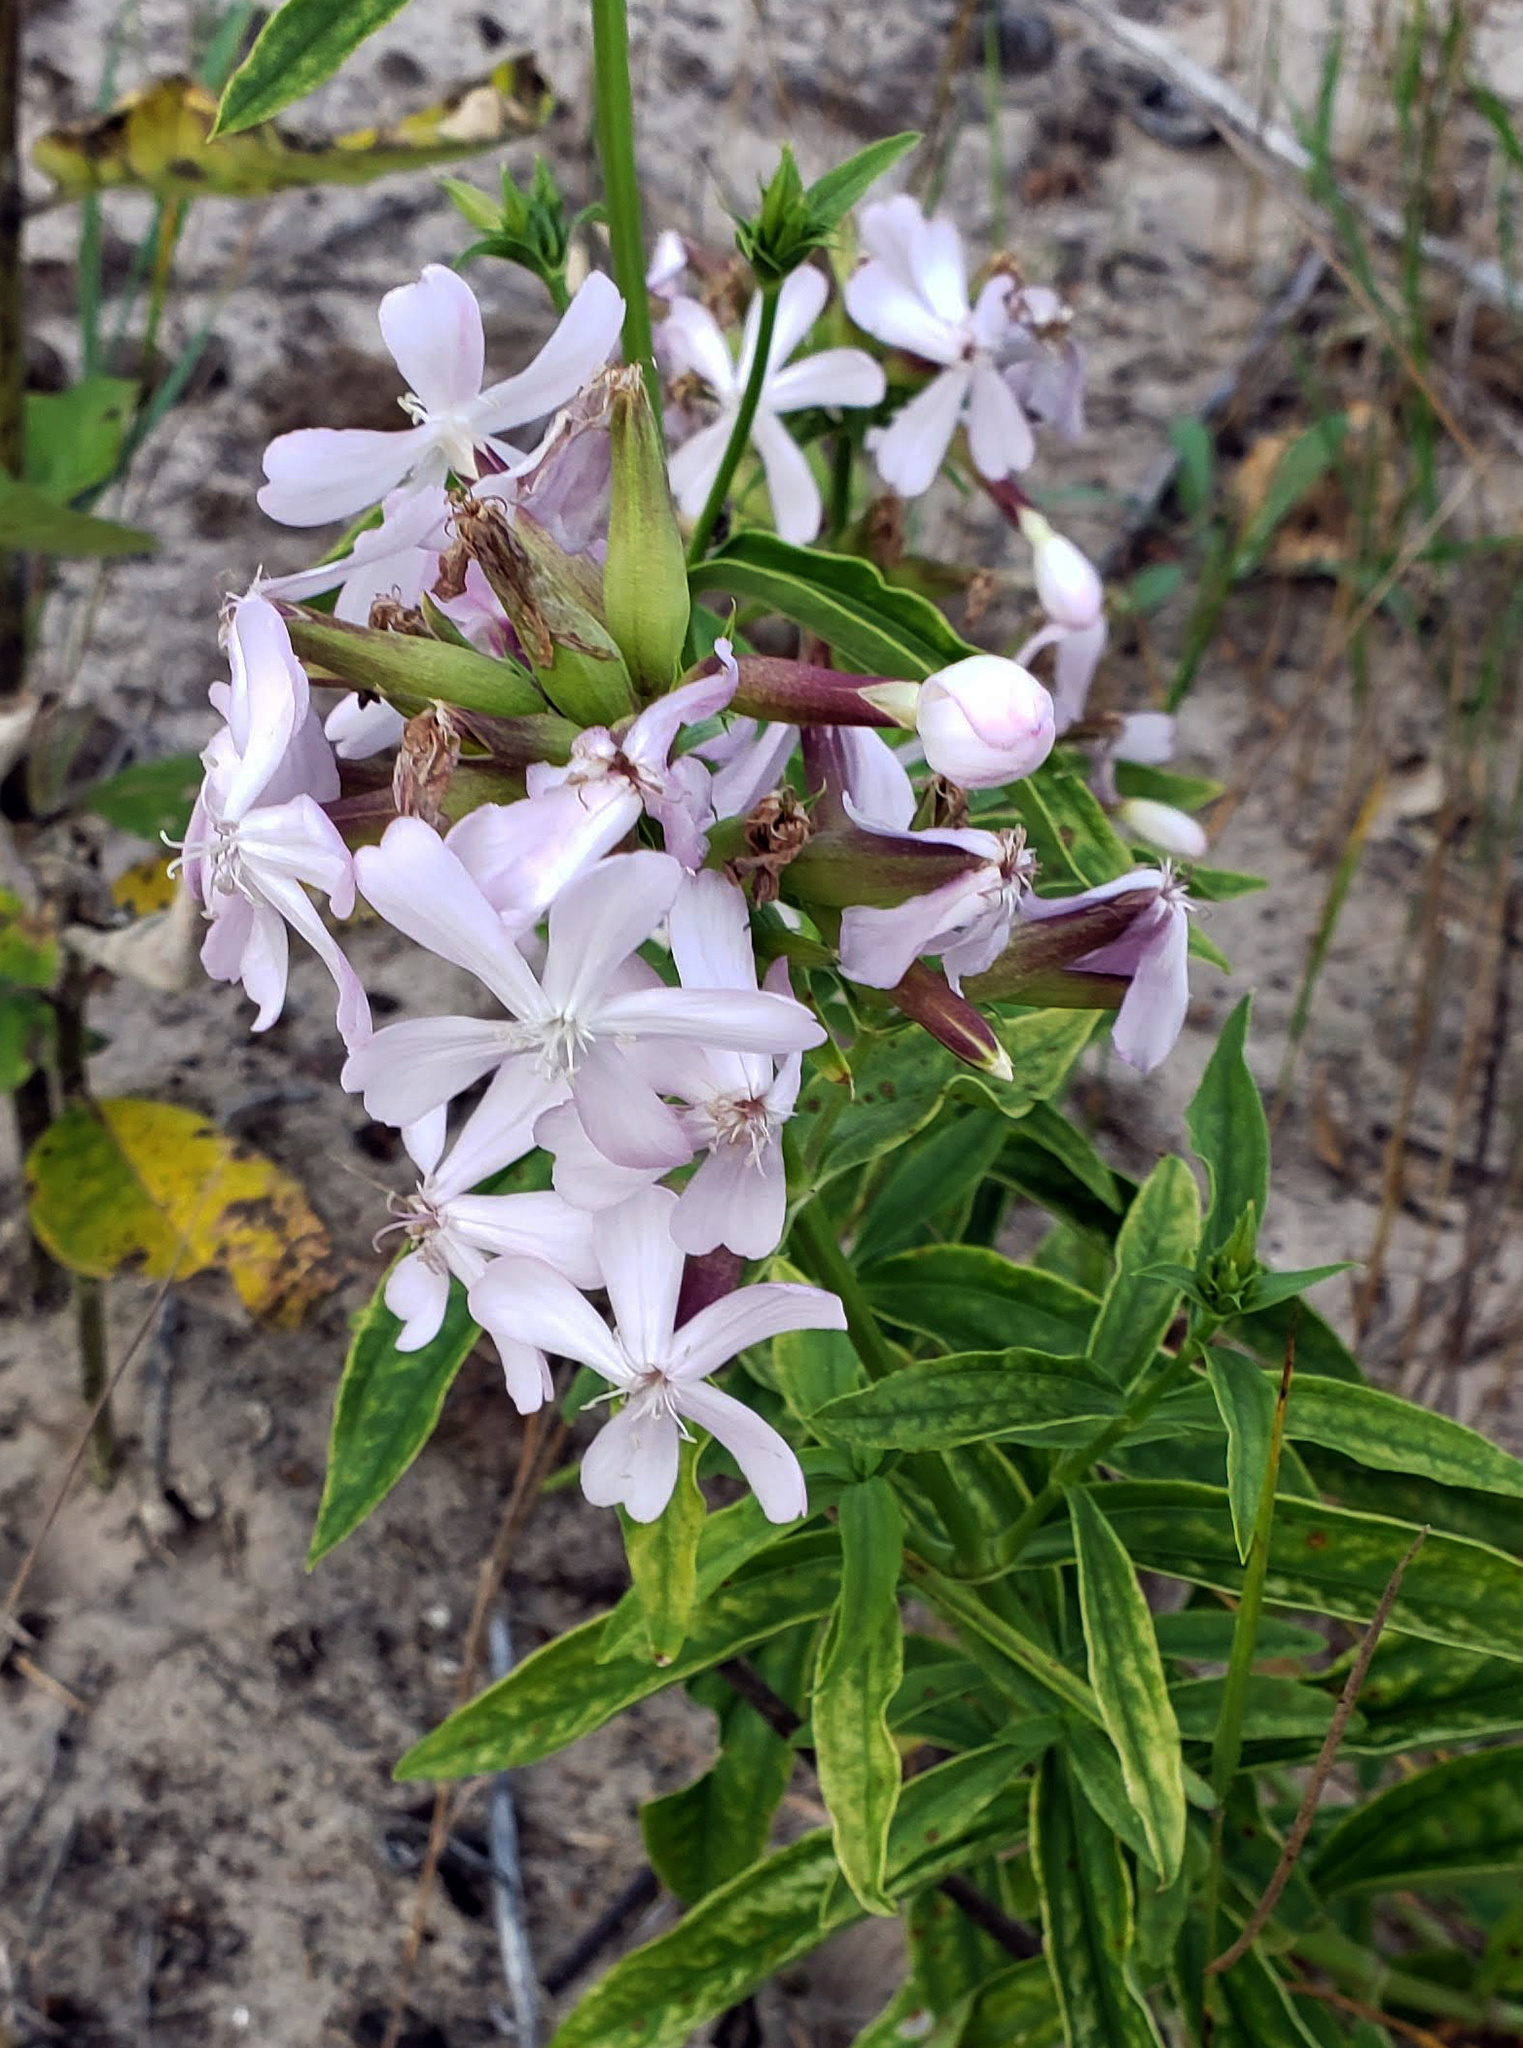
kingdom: Plantae
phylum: Tracheophyta
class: Magnoliopsida
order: Caryophyllales
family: Caryophyllaceae
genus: Saponaria
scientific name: Saponaria officinalis
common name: Soapwort
